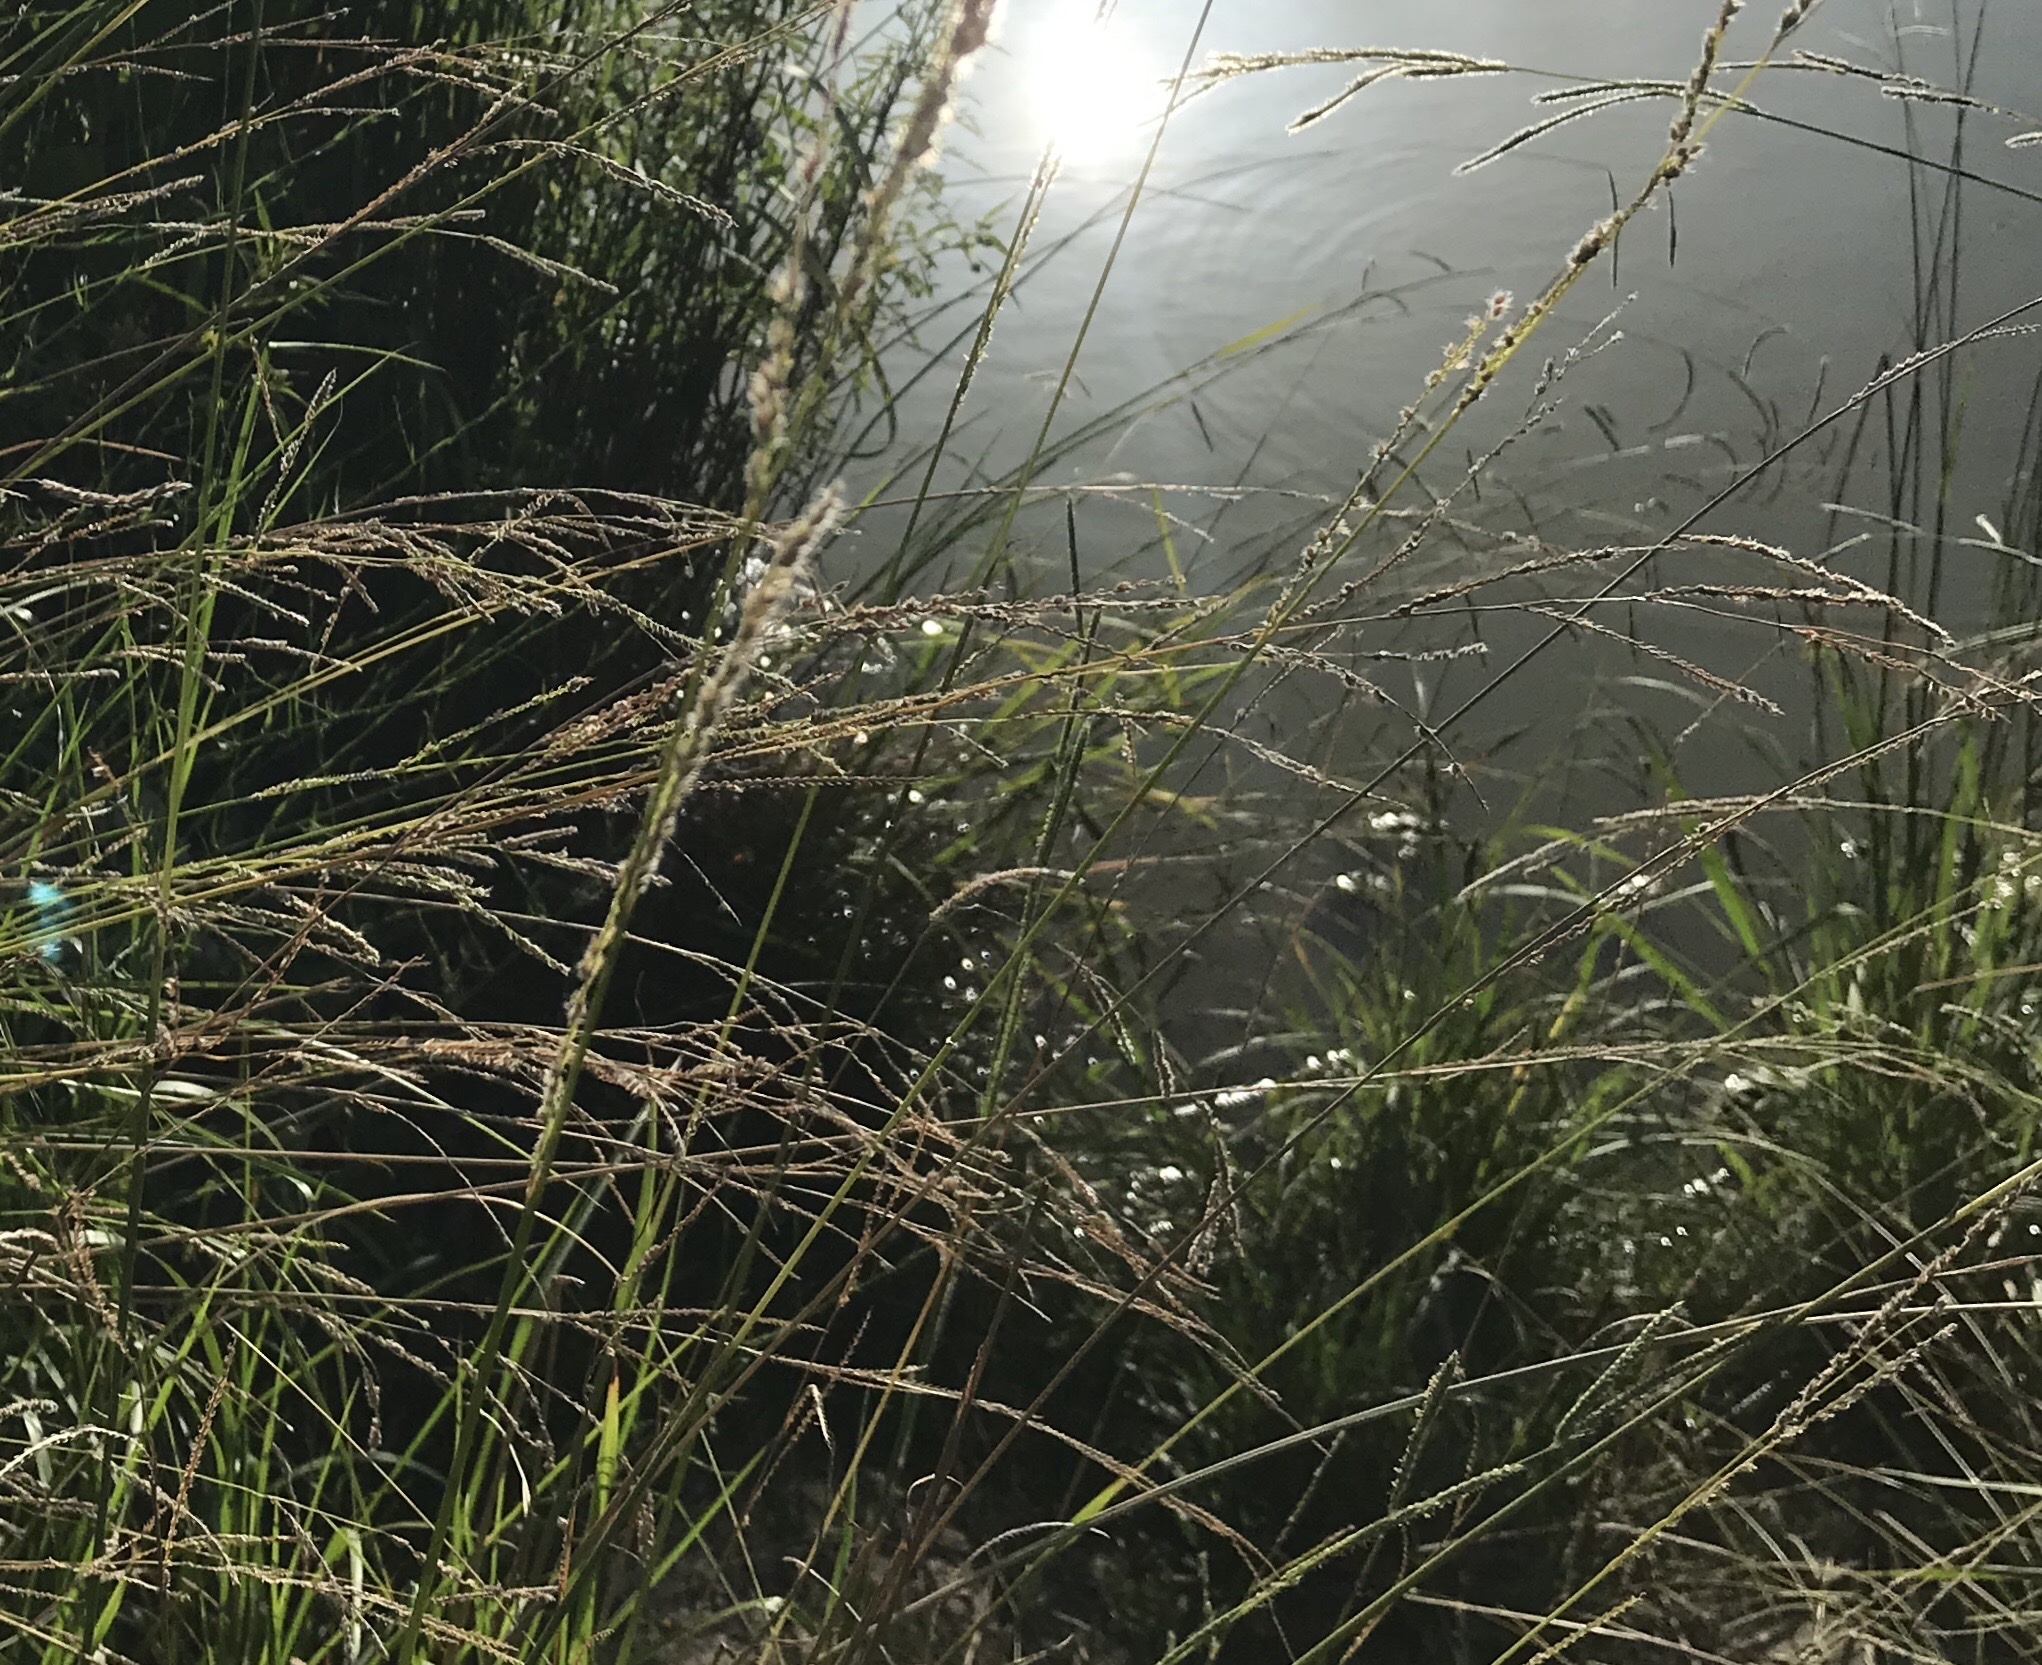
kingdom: Plantae
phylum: Tracheophyta
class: Liliopsida
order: Poales
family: Poaceae
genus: Paspalum
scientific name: Paspalum urvillei
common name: Vasey's grass
